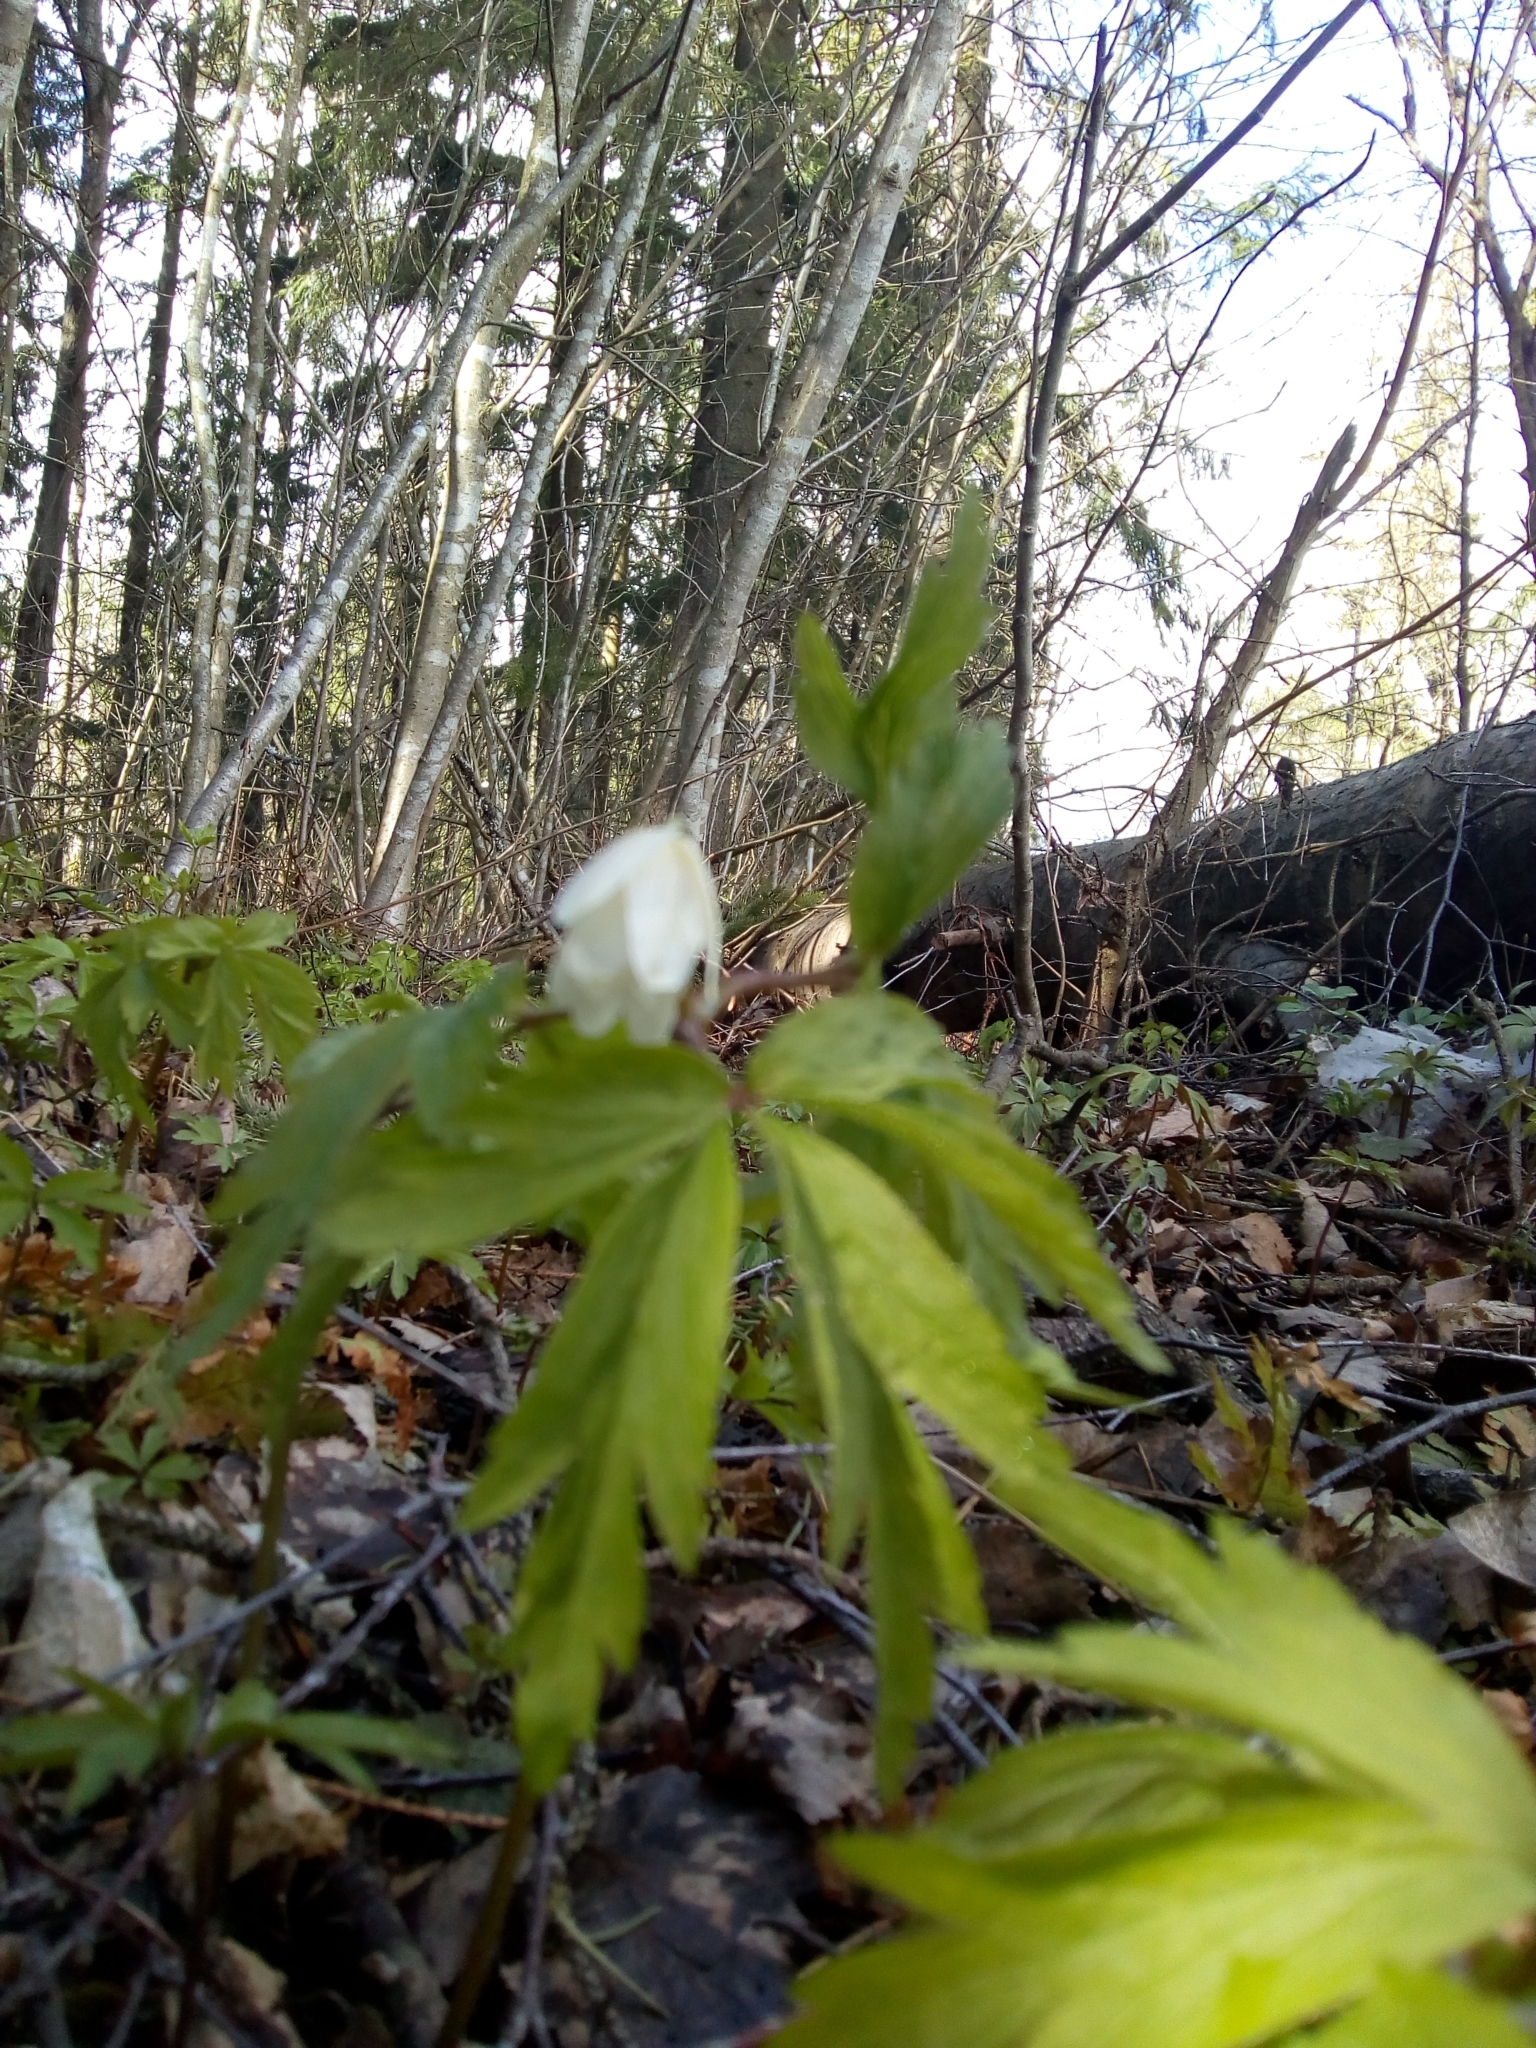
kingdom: Plantae
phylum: Tracheophyta
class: Magnoliopsida
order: Ranunculales
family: Ranunculaceae
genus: Anemone
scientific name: Anemone nemorosa
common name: Wood anemone
